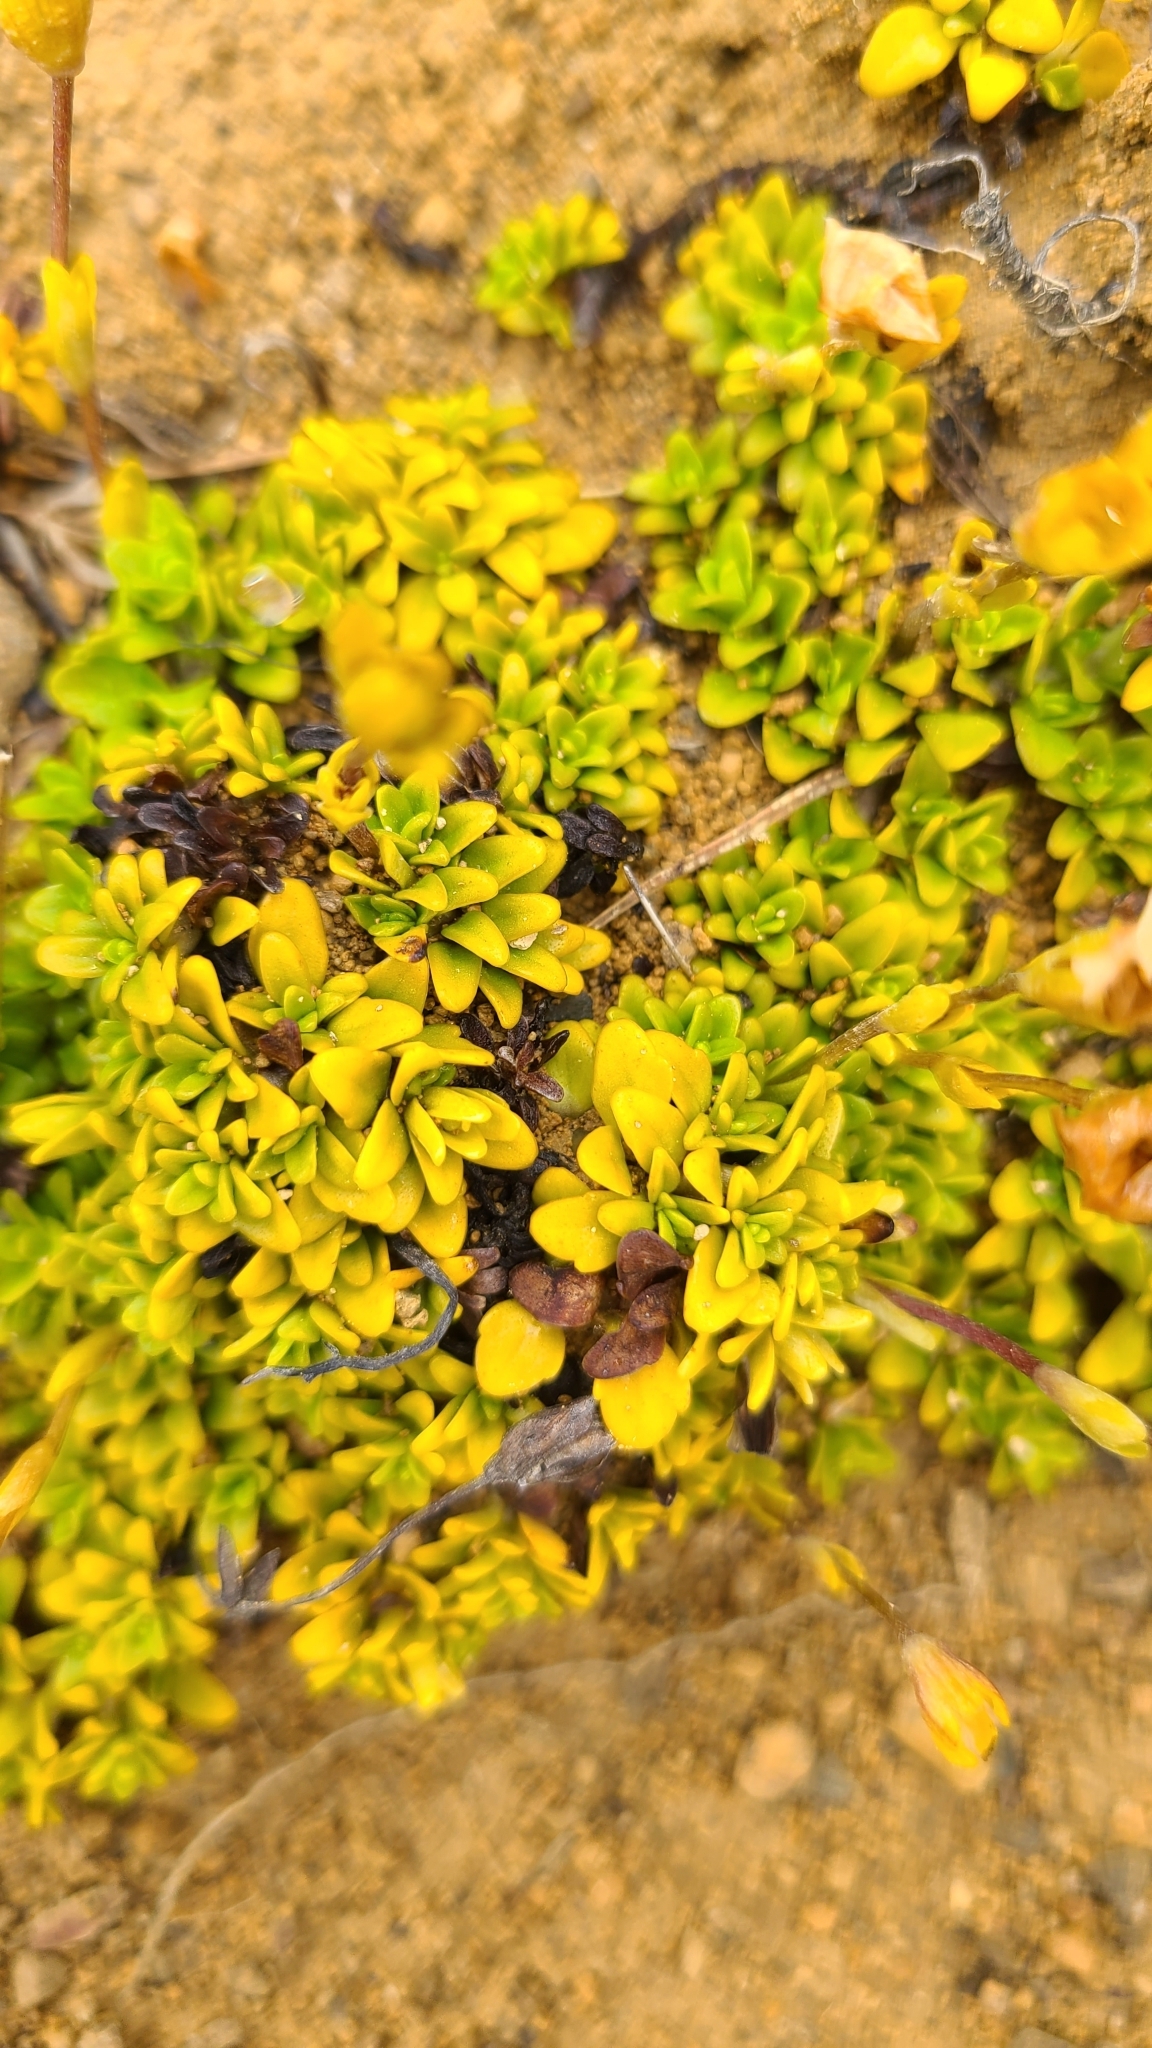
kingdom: Plantae
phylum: Tracheophyta
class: Magnoliopsida
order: Lamiales
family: Plantaginaceae
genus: Ourisia
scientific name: Ourisia caespitosa
